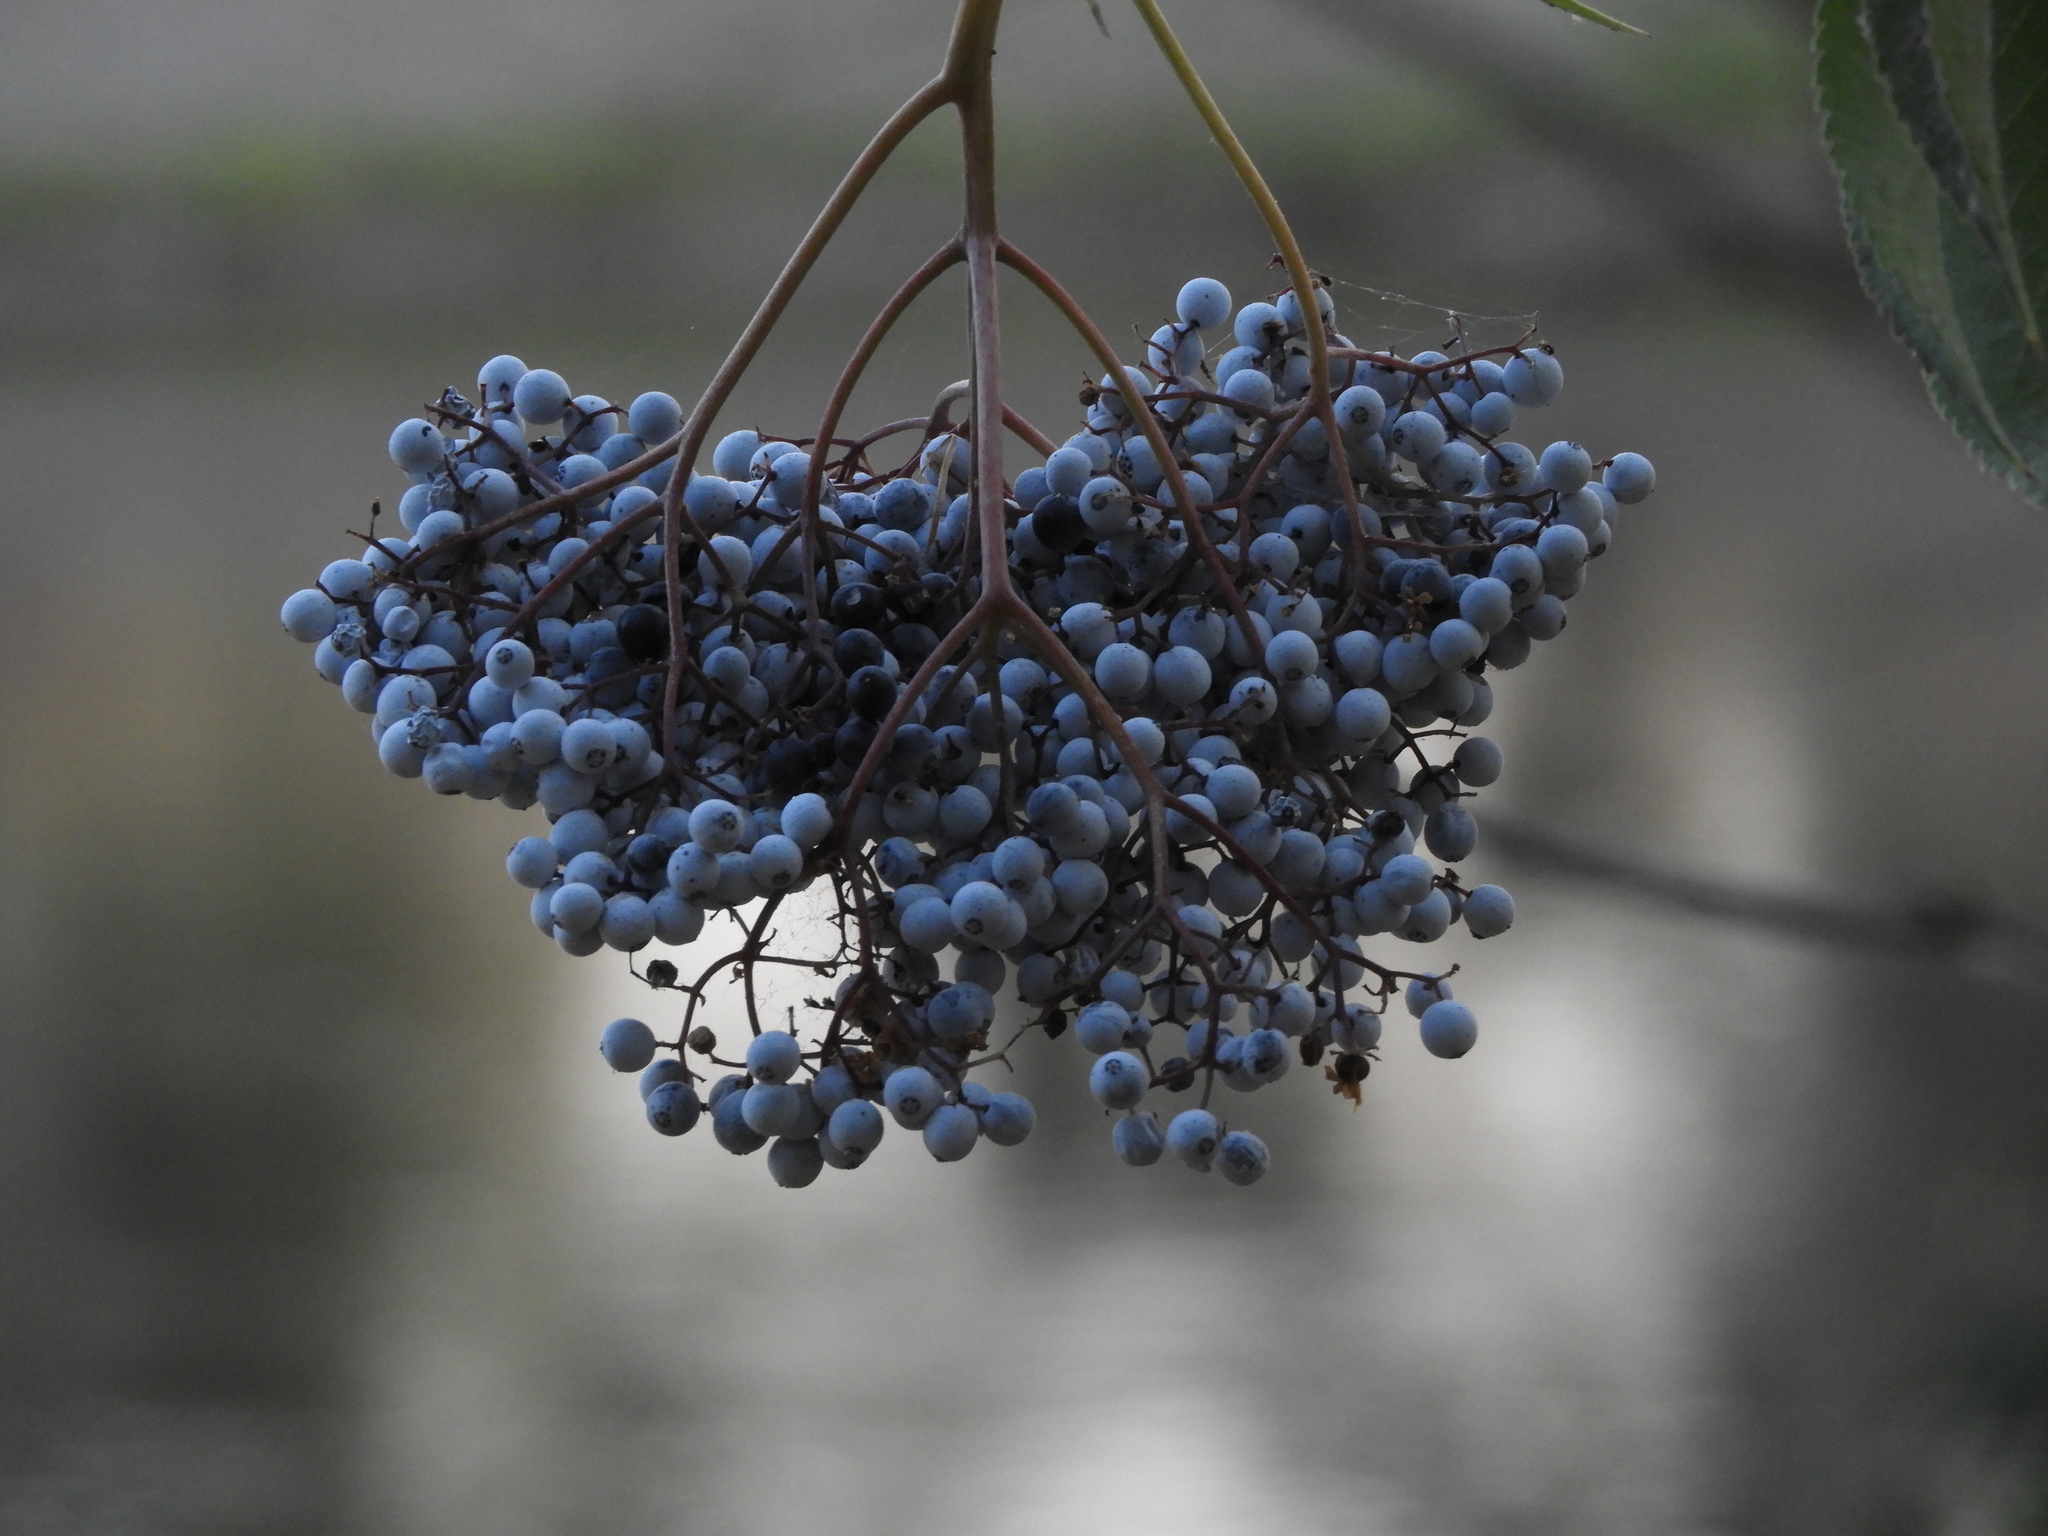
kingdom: Plantae
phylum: Tracheophyta
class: Magnoliopsida
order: Dipsacales
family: Viburnaceae
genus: Sambucus
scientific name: Sambucus cerulea
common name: Blue elder
